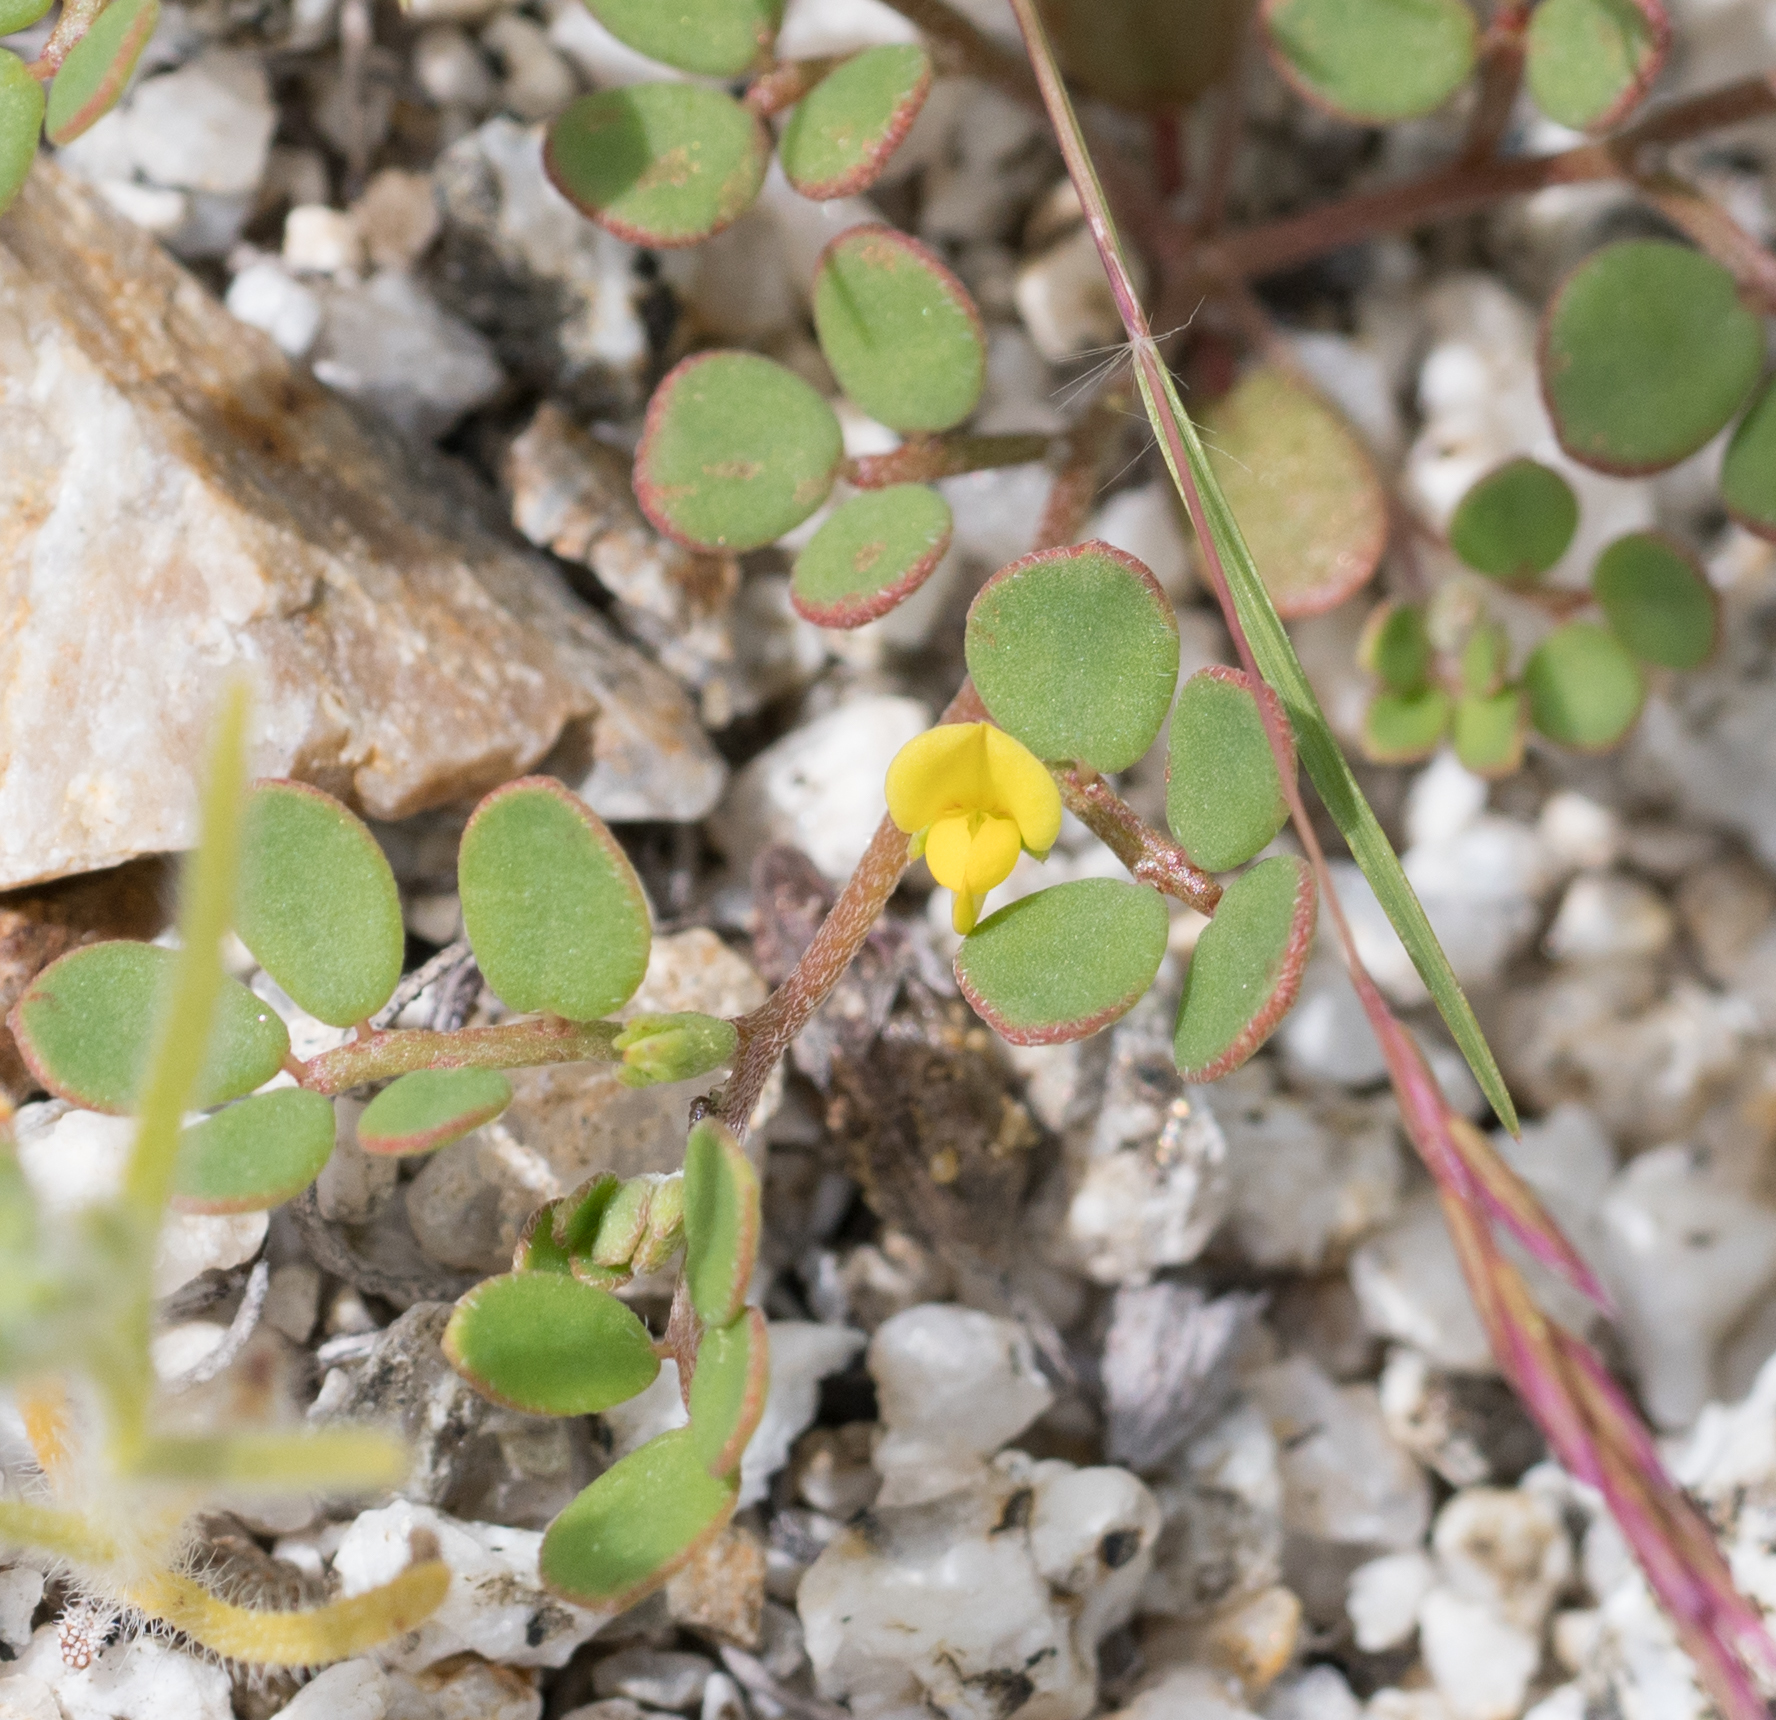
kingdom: Plantae
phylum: Tracheophyta
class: Magnoliopsida
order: Fabales
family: Fabaceae
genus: Acmispon
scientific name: Acmispon maritimus
